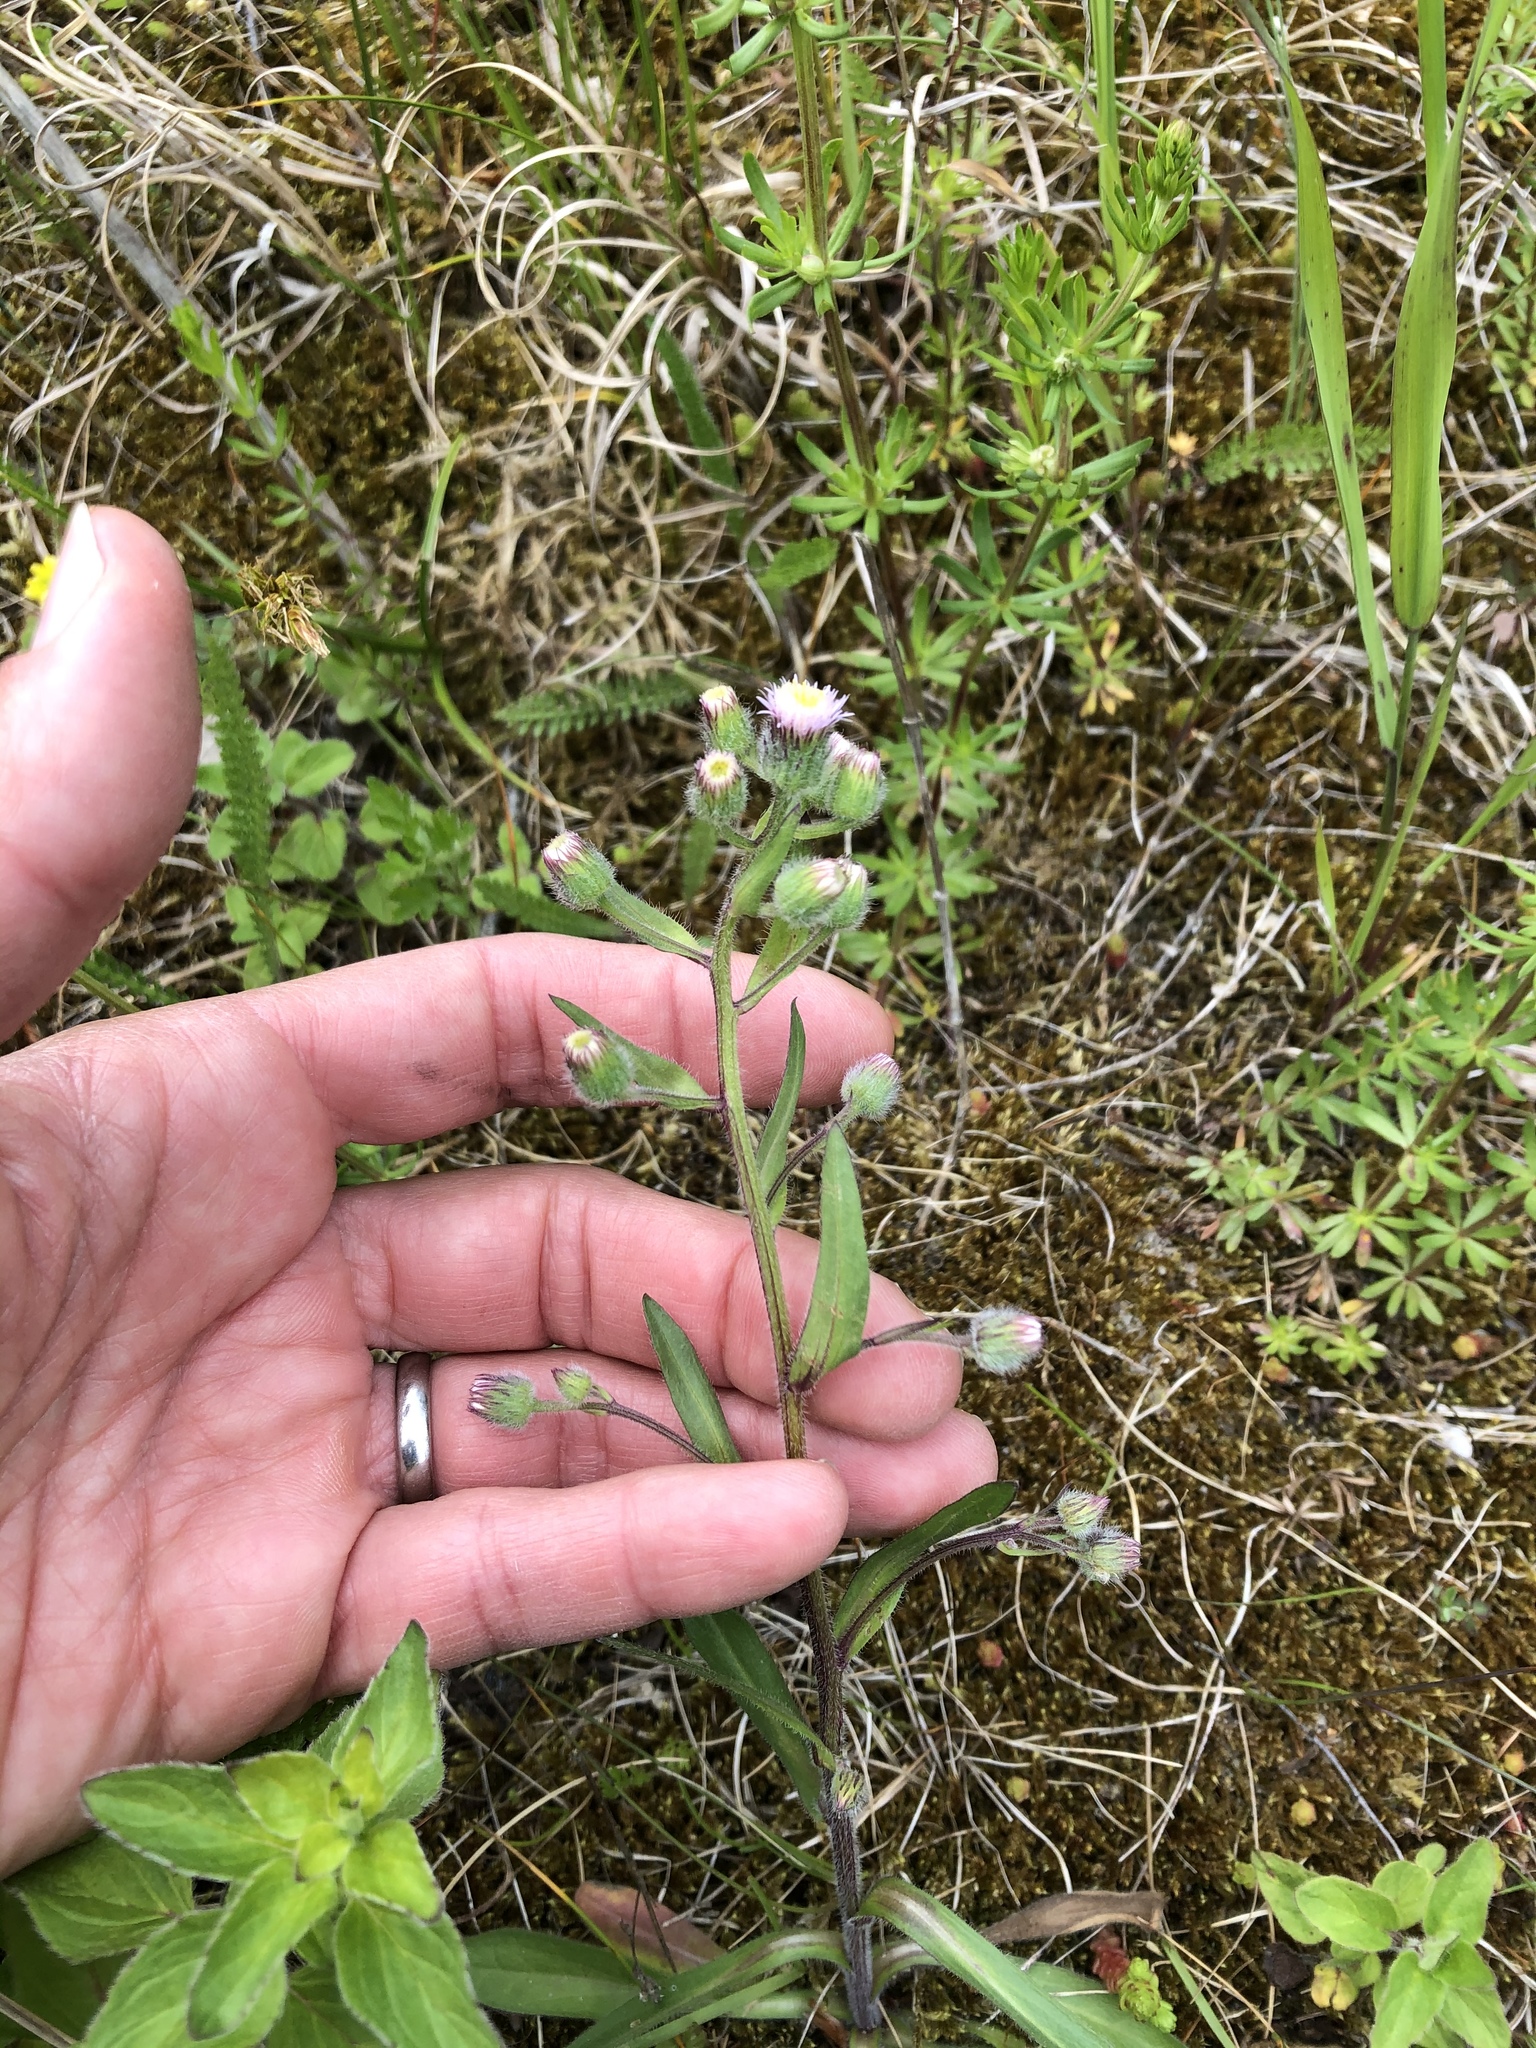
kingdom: Plantae
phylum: Tracheophyta
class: Magnoliopsida
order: Asterales
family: Asteraceae
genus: Erigeron
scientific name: Erigeron acris
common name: Blue fleabane
